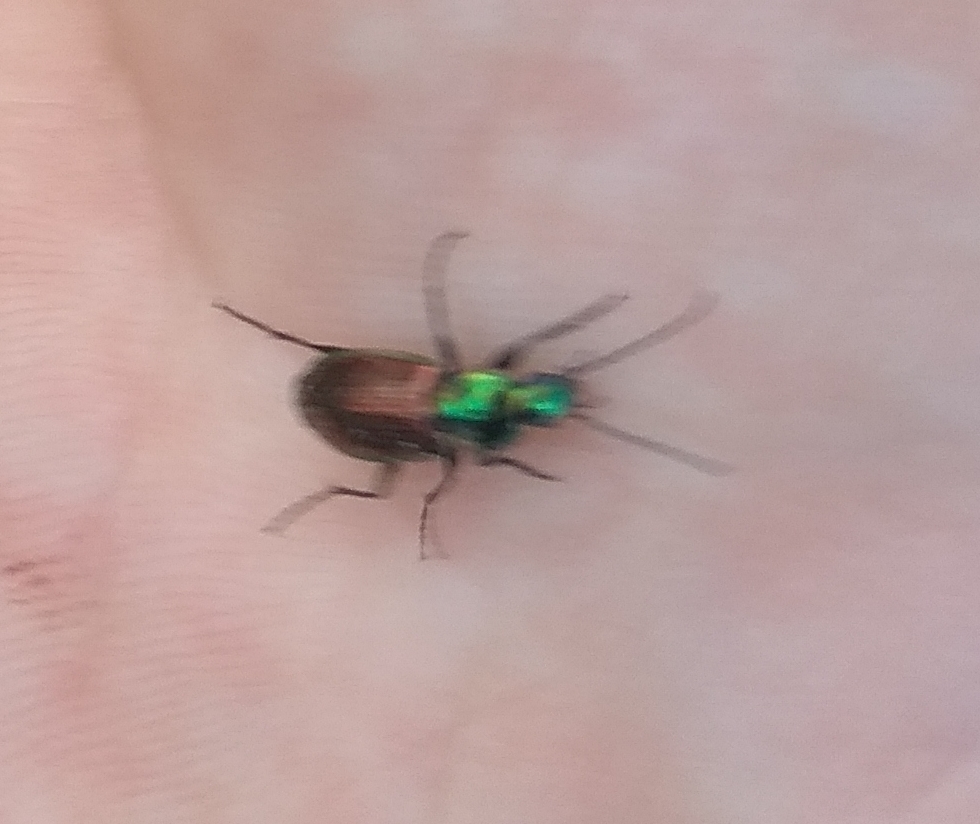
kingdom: Animalia
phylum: Arthropoda
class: Insecta
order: Coleoptera
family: Carabidae
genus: Agonum
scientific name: Agonum sexpunctatum
